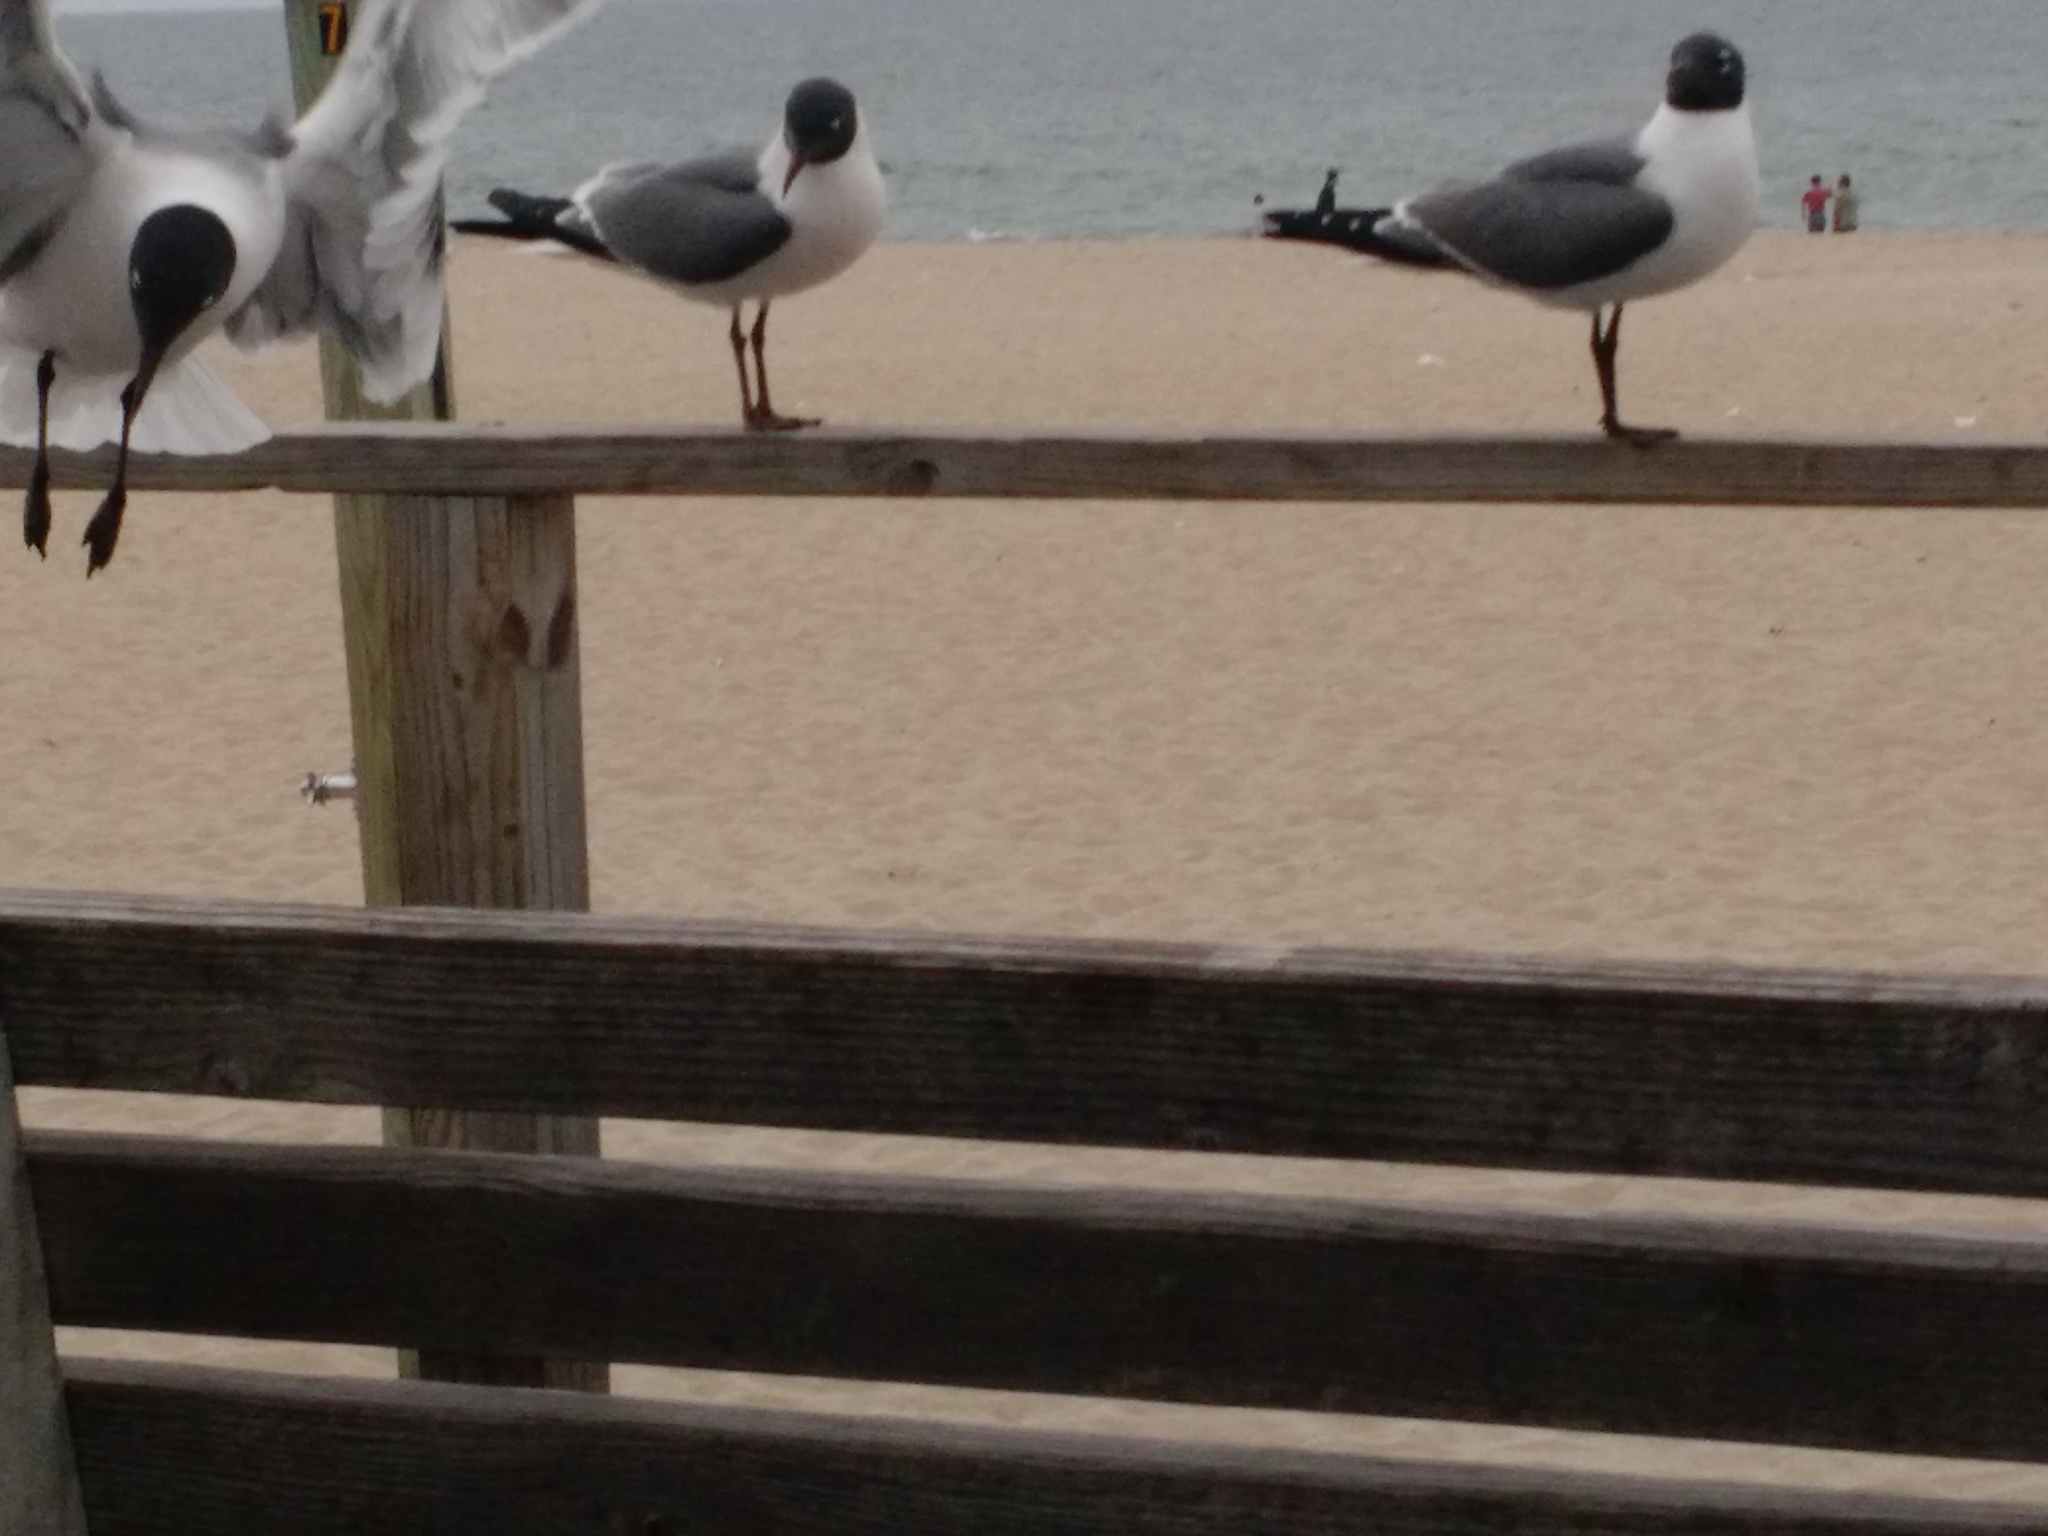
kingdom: Animalia
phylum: Chordata
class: Aves
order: Charadriiformes
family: Laridae
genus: Leucophaeus
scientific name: Leucophaeus atricilla
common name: Laughing gull
